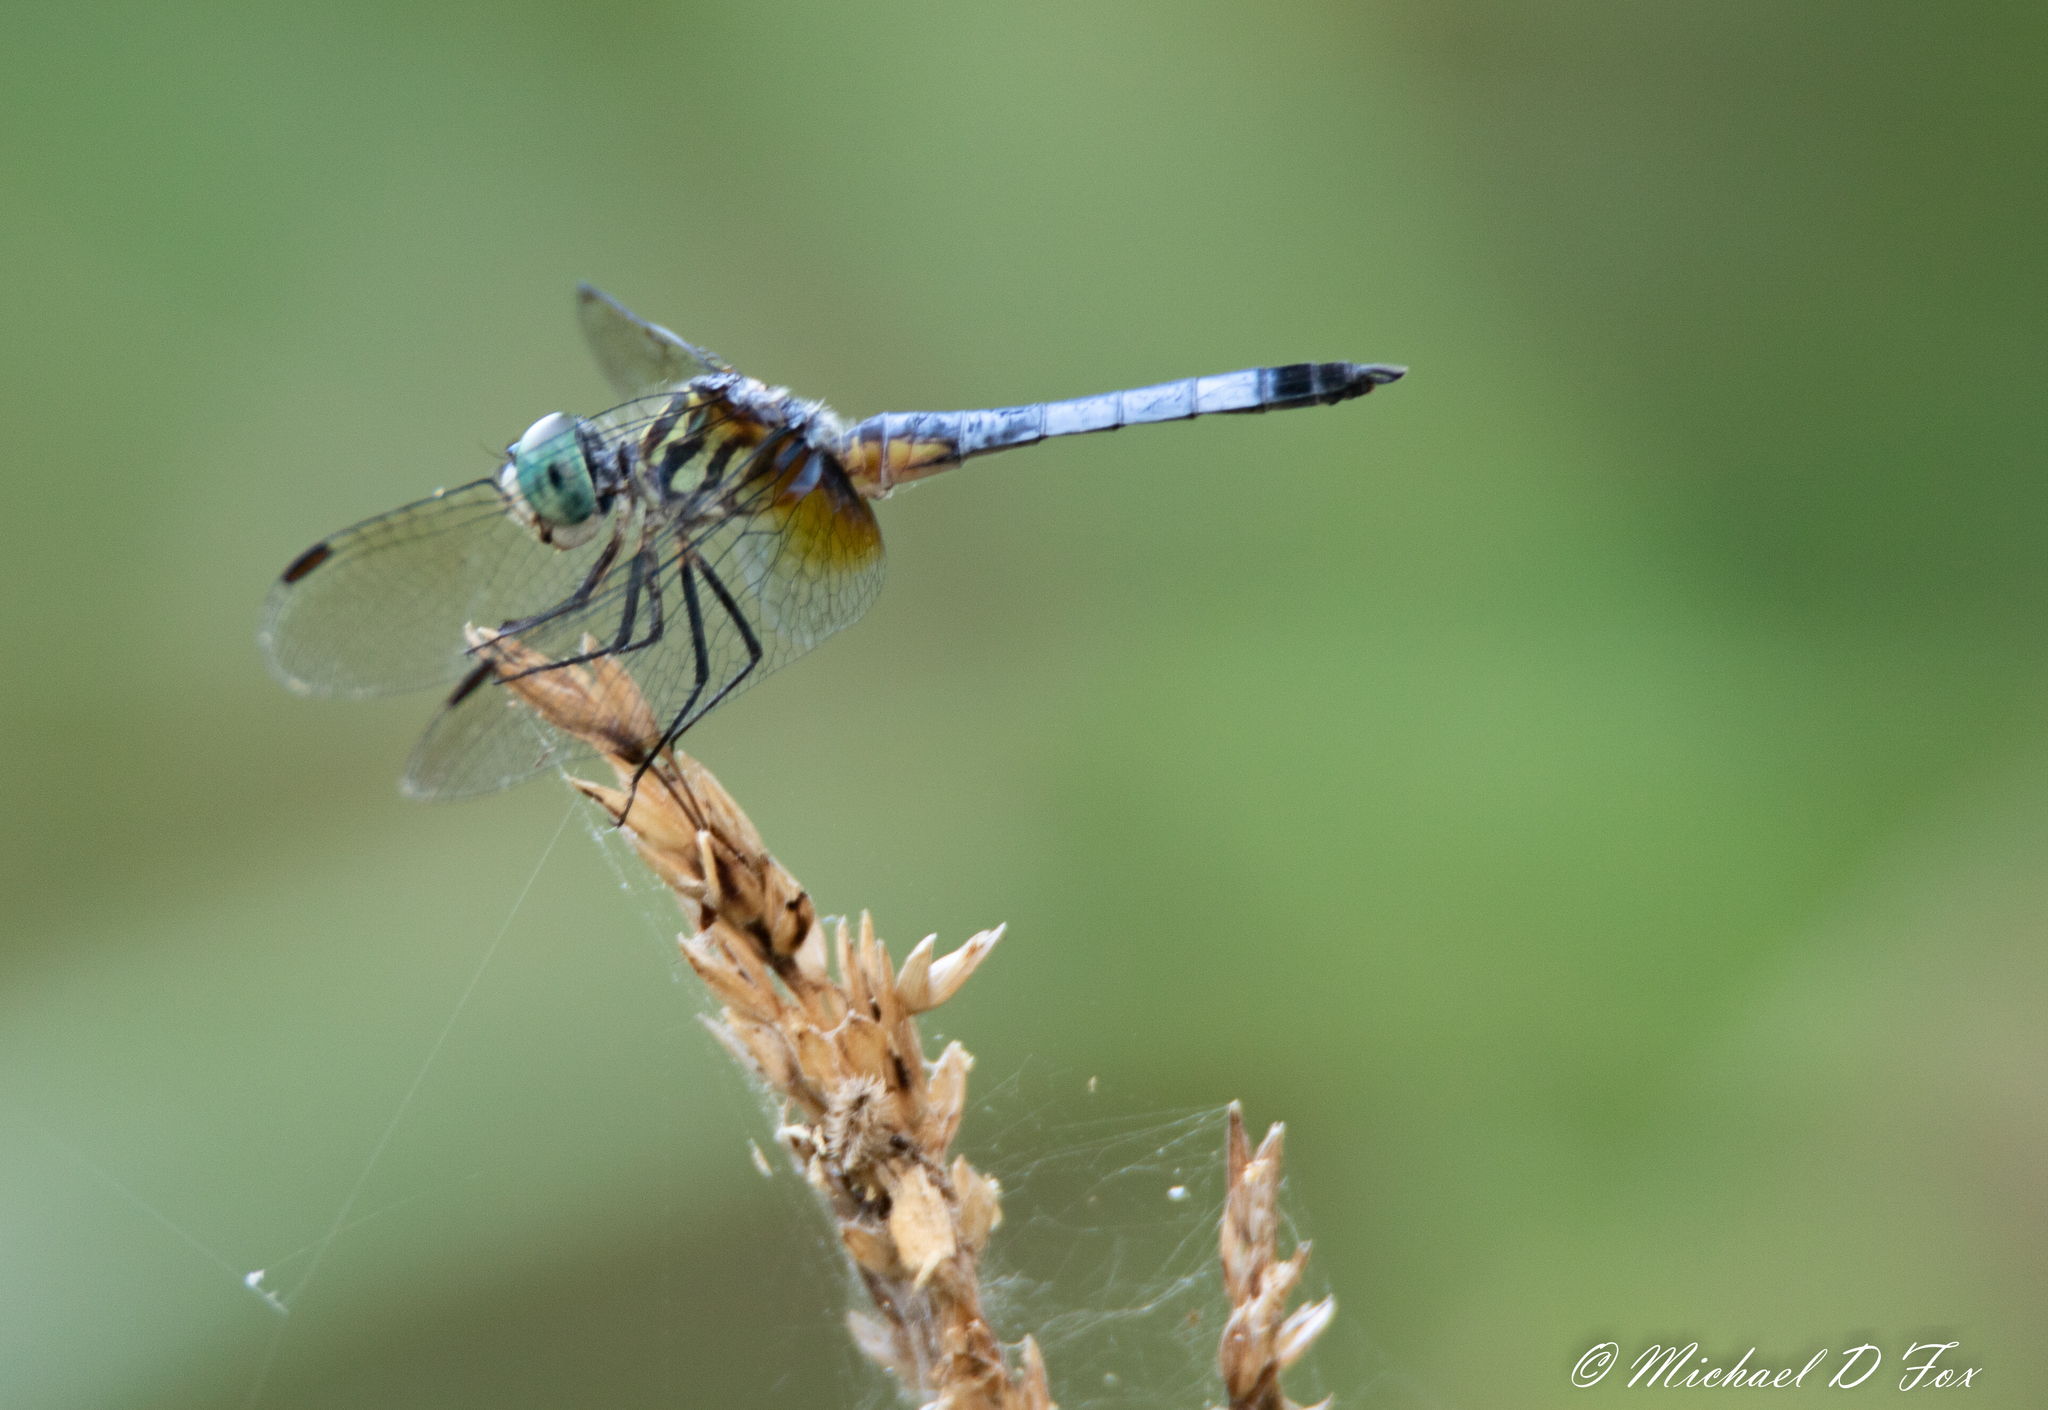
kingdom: Animalia
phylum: Arthropoda
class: Insecta
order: Odonata
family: Libellulidae
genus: Pachydiplax
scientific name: Pachydiplax longipennis
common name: Blue dasher
